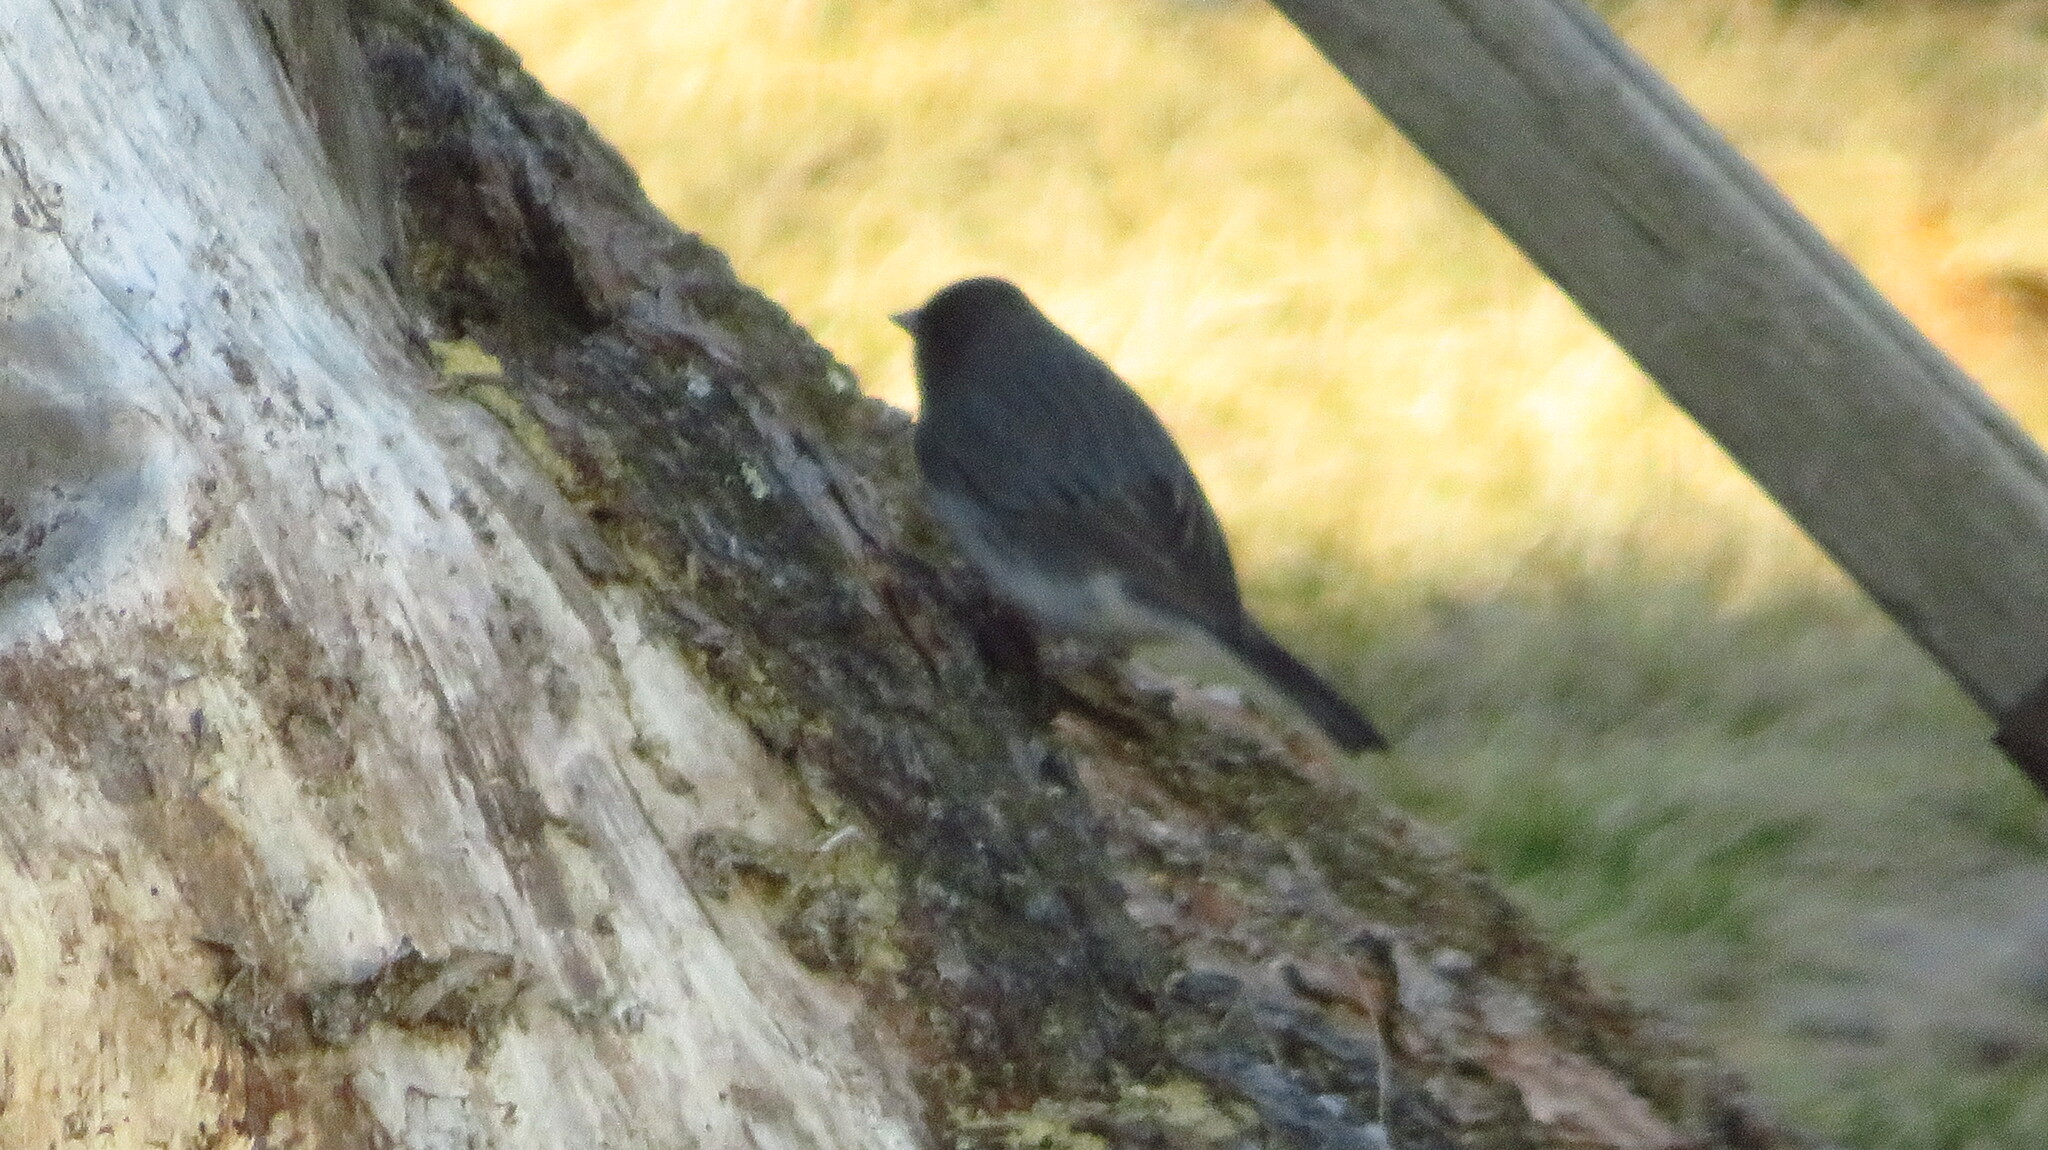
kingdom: Animalia
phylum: Chordata
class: Aves
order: Passeriformes
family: Passerellidae
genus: Junco
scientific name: Junco hyemalis
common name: Dark-eyed junco
